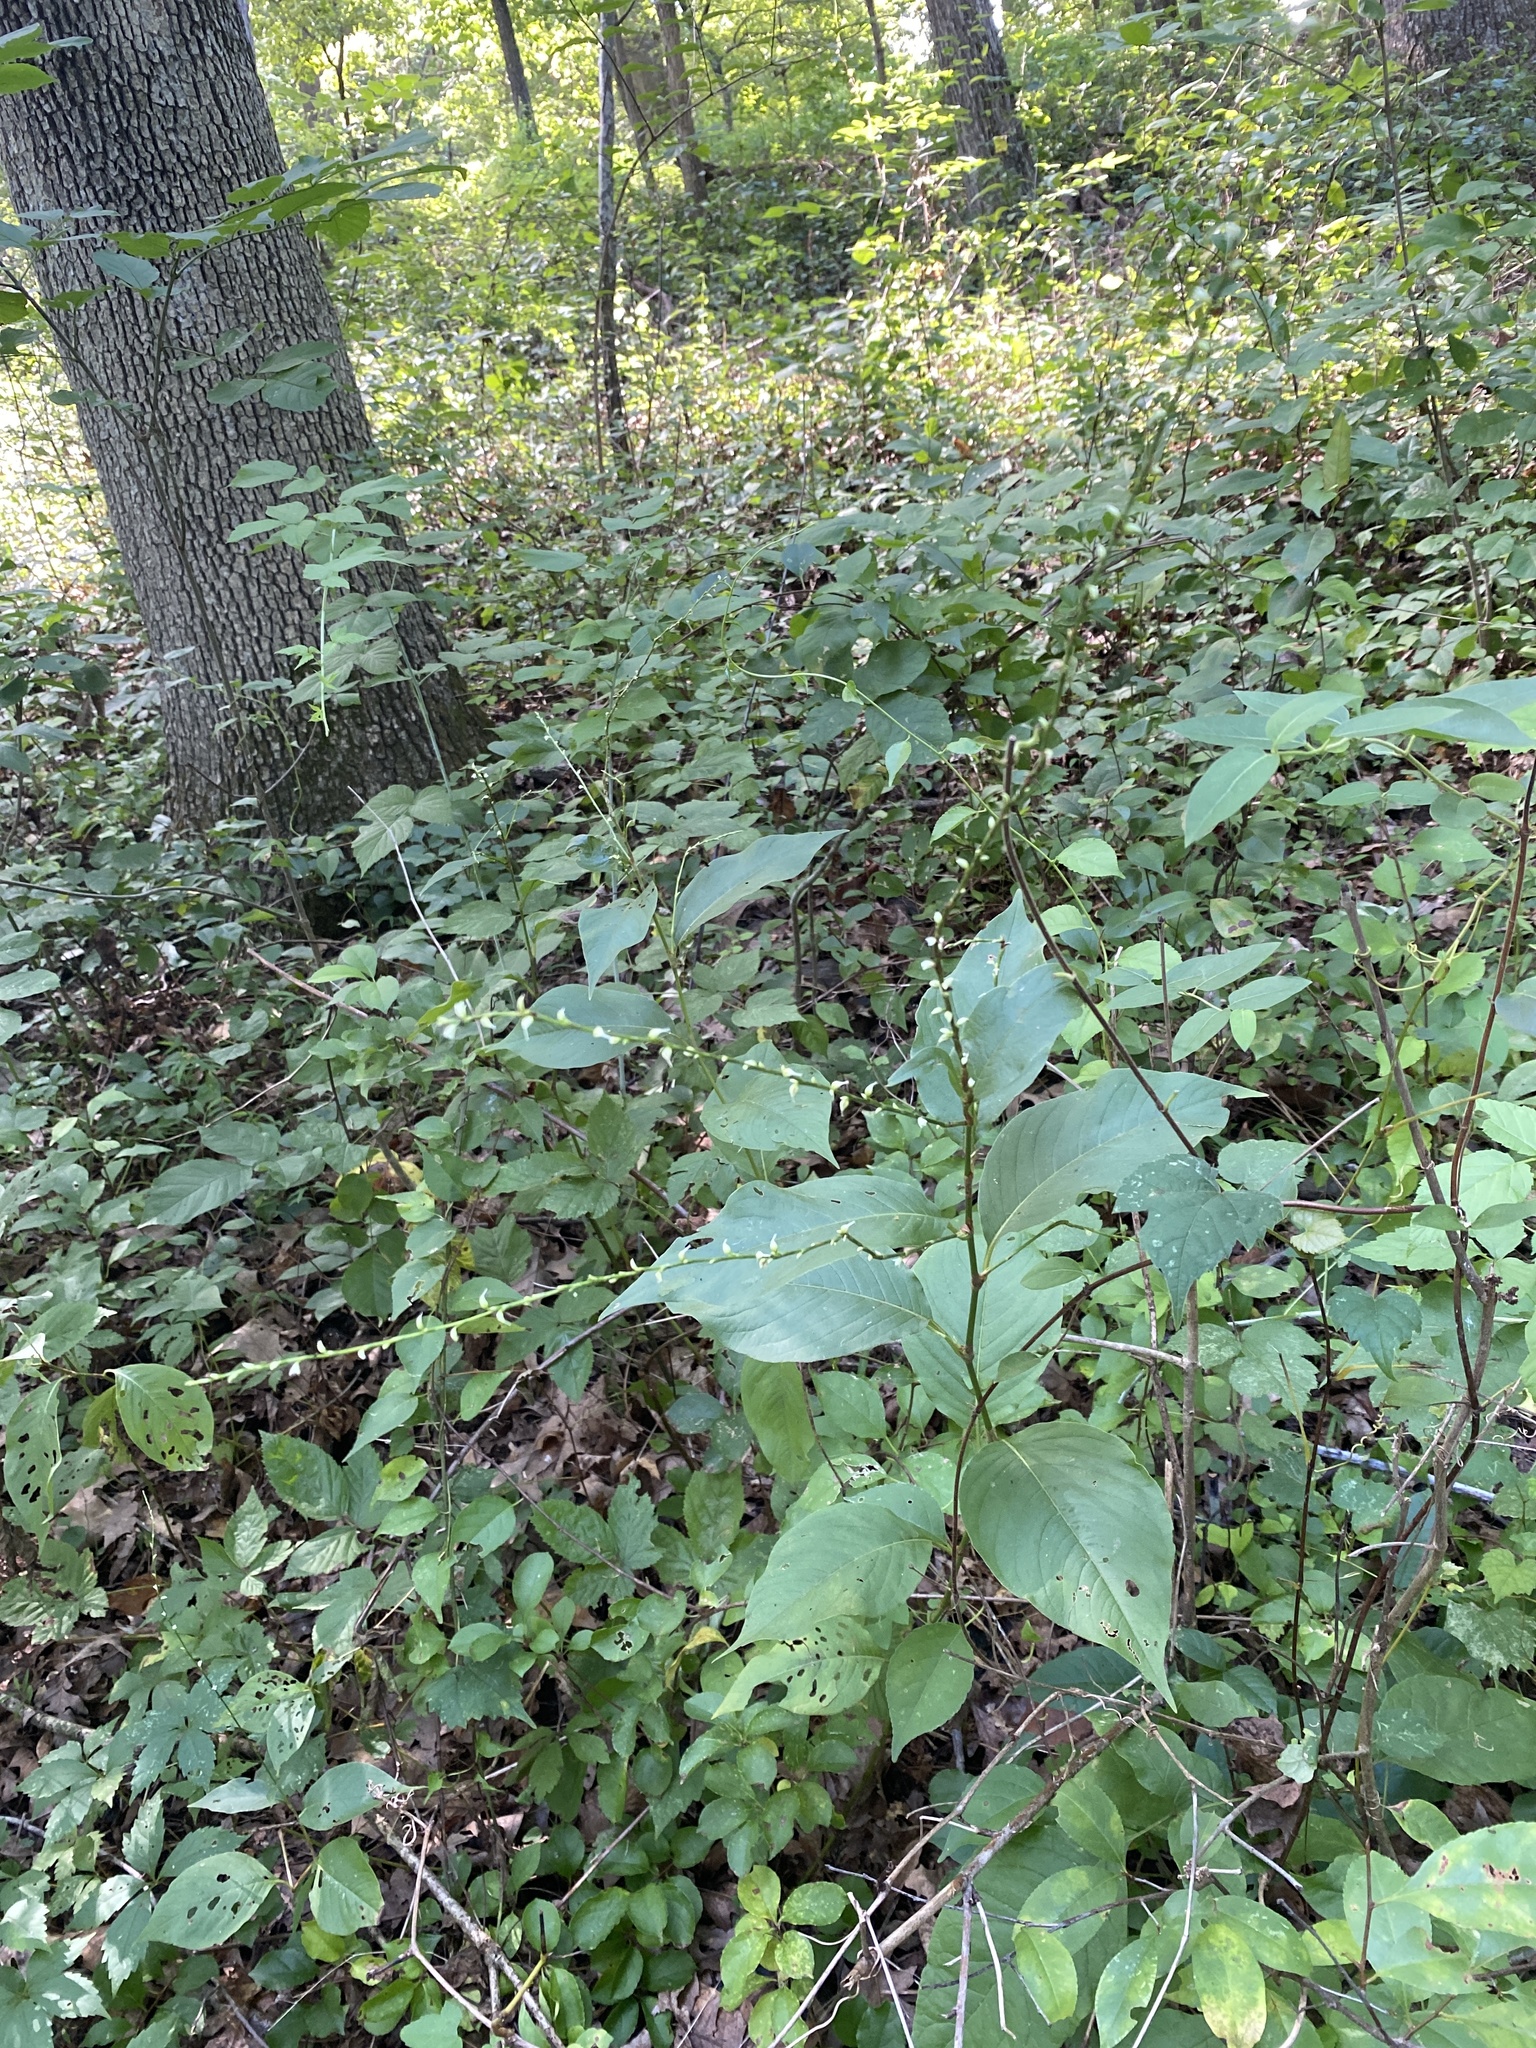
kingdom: Plantae
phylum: Tracheophyta
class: Magnoliopsida
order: Caryophyllales
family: Polygonaceae
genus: Persicaria
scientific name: Persicaria virginiana
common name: Jumpseed
